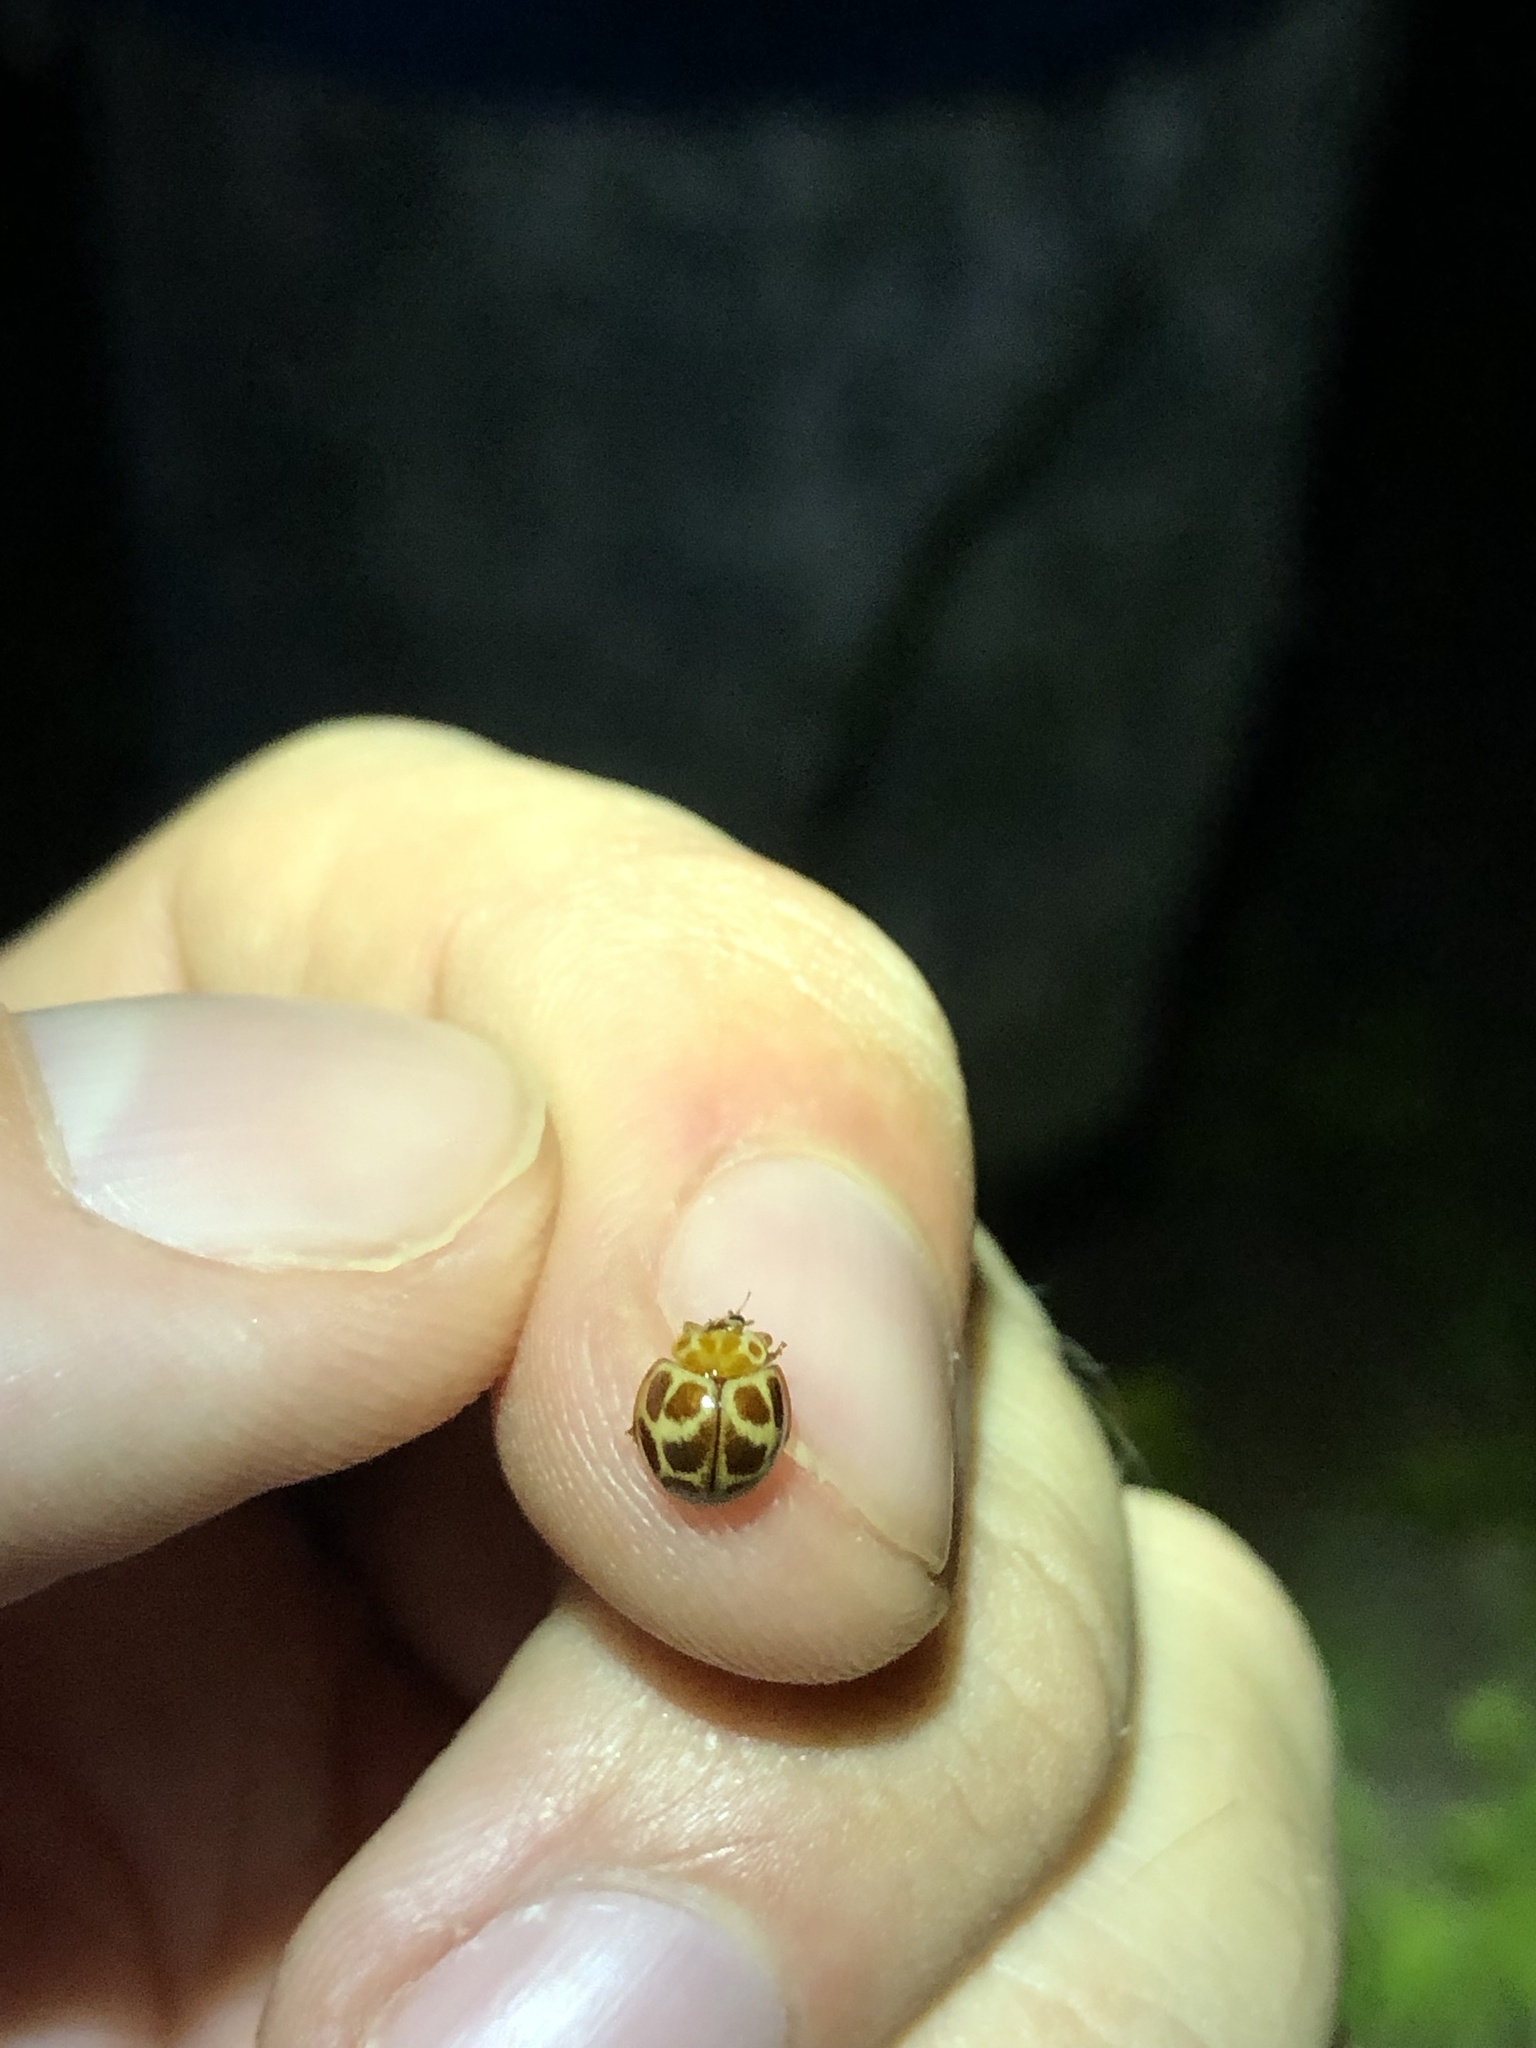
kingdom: Animalia
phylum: Arthropoda
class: Insecta
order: Coleoptera
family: Coccinellidae
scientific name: Coccinellidae
